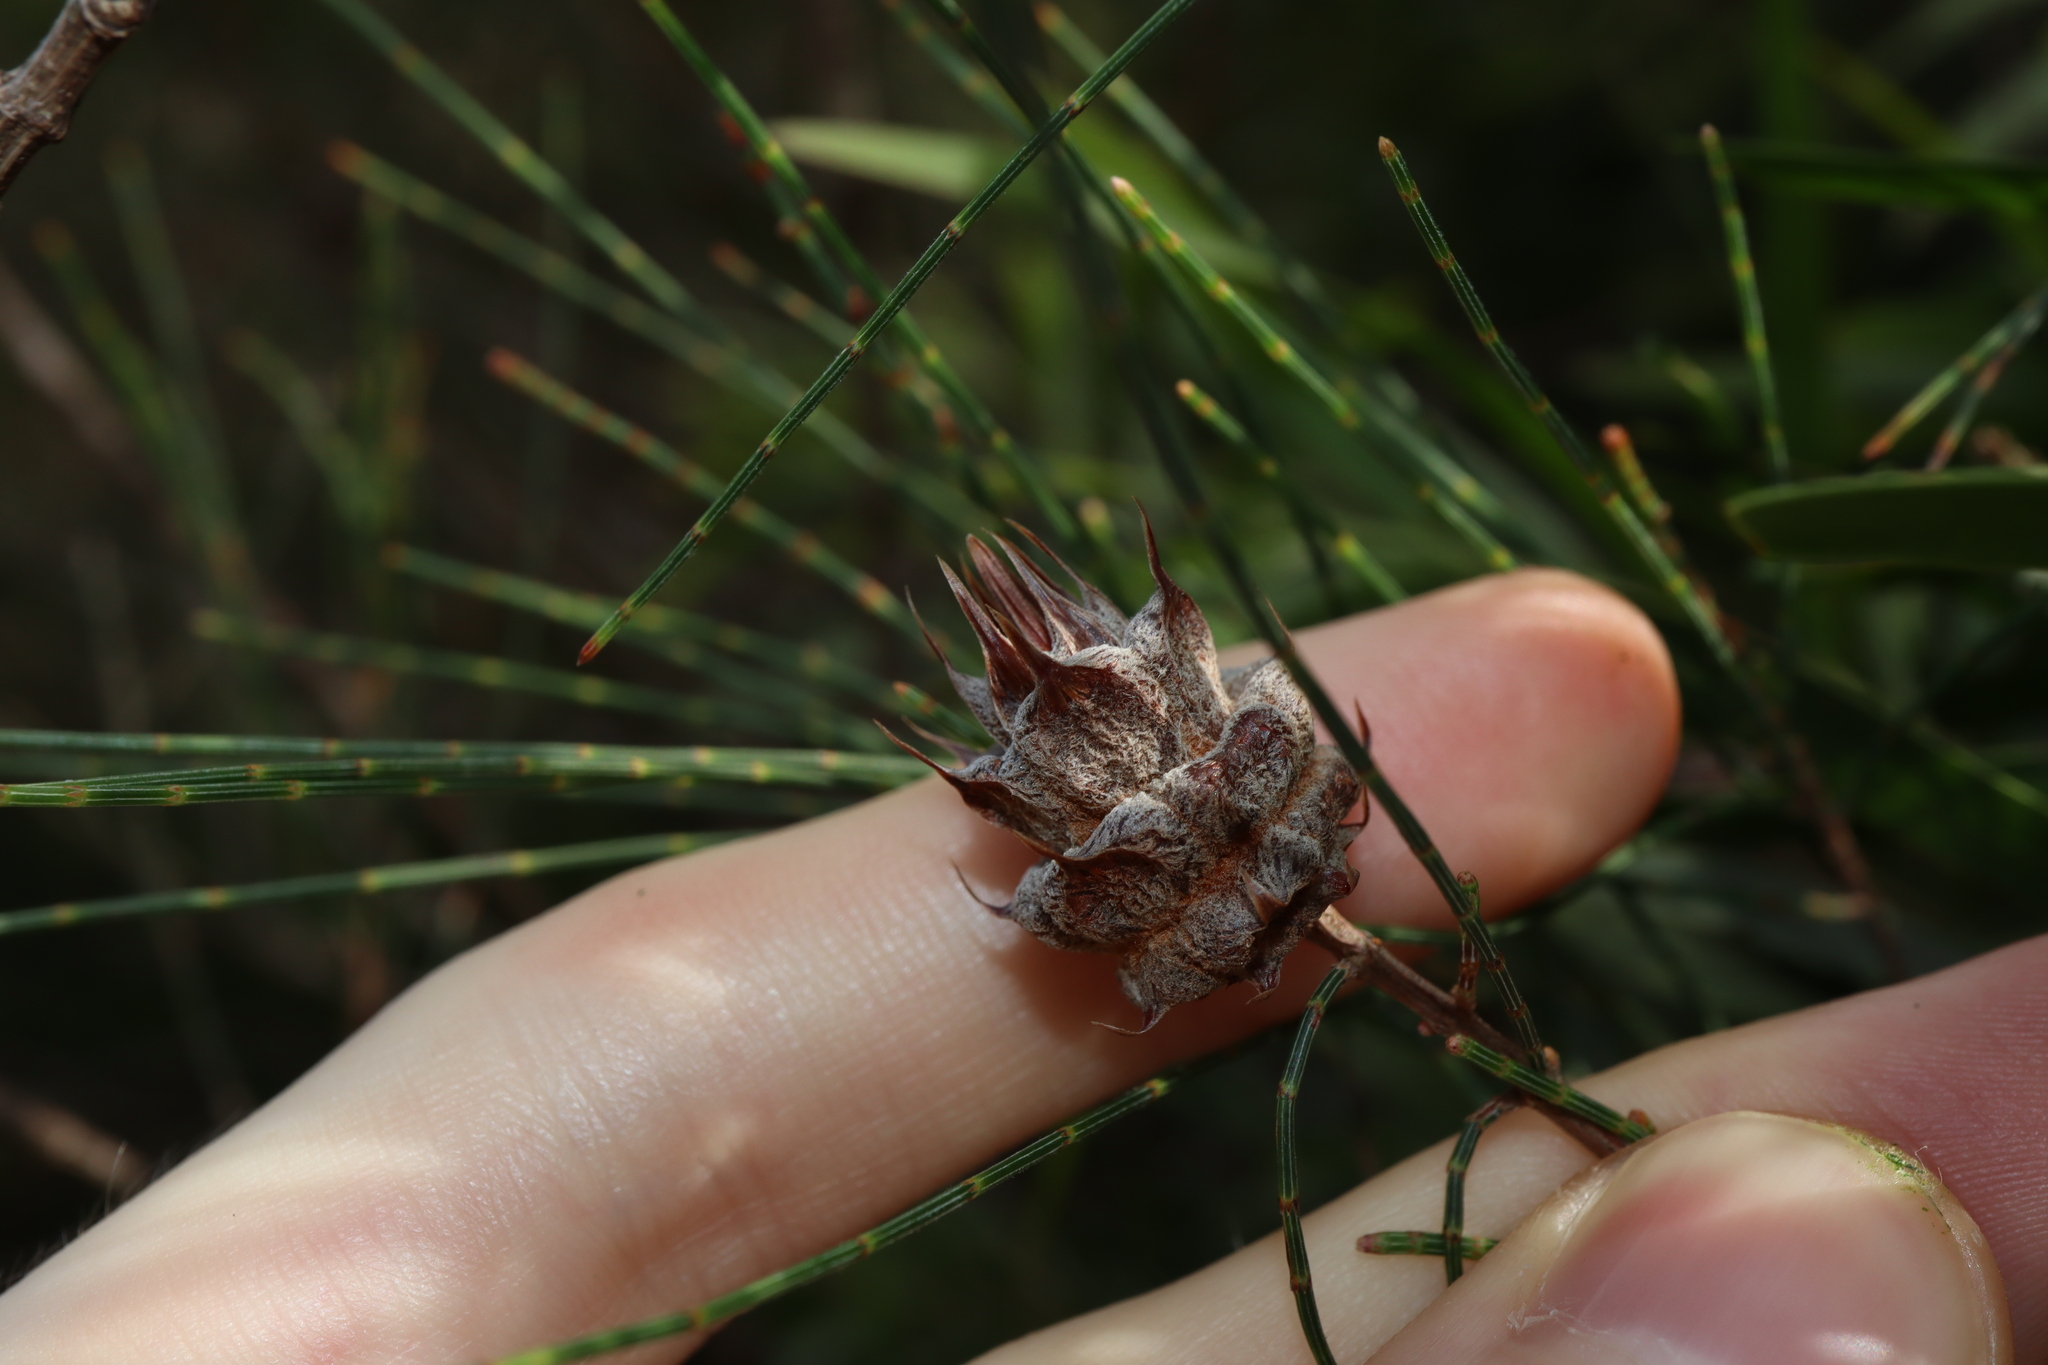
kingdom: Animalia
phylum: Arthropoda
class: Insecta
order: Hemiptera
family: Eriococcidae
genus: Cylindrococcus
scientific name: Cylindrococcus spiniferus
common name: Casuarina gall
